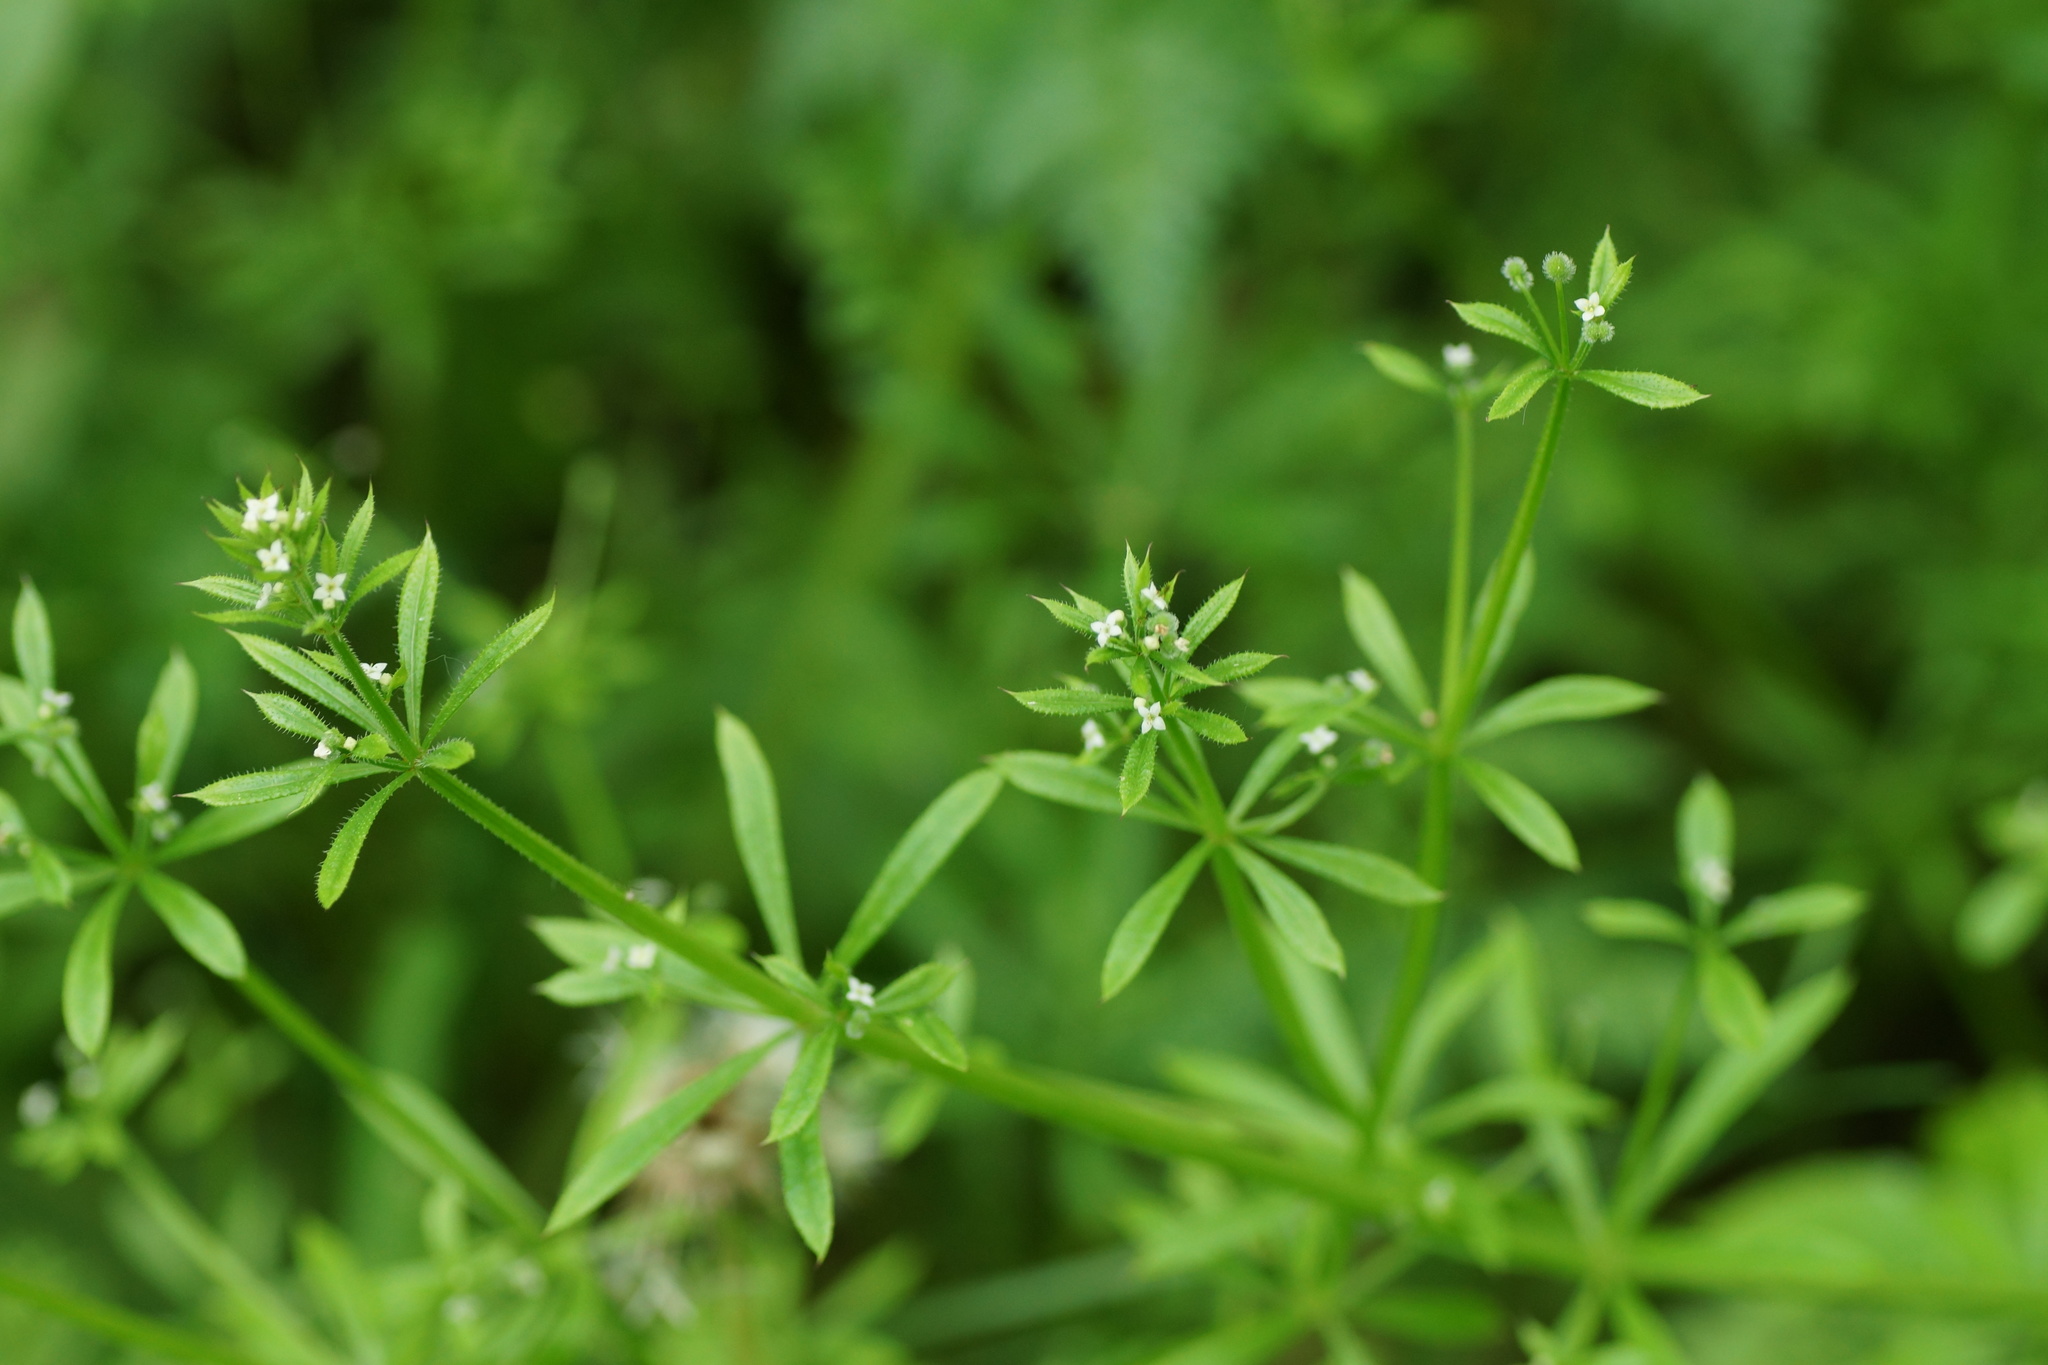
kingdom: Plantae
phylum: Tracheophyta
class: Magnoliopsida
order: Gentianales
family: Rubiaceae
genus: Galium
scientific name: Galium aparine
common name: Cleavers
